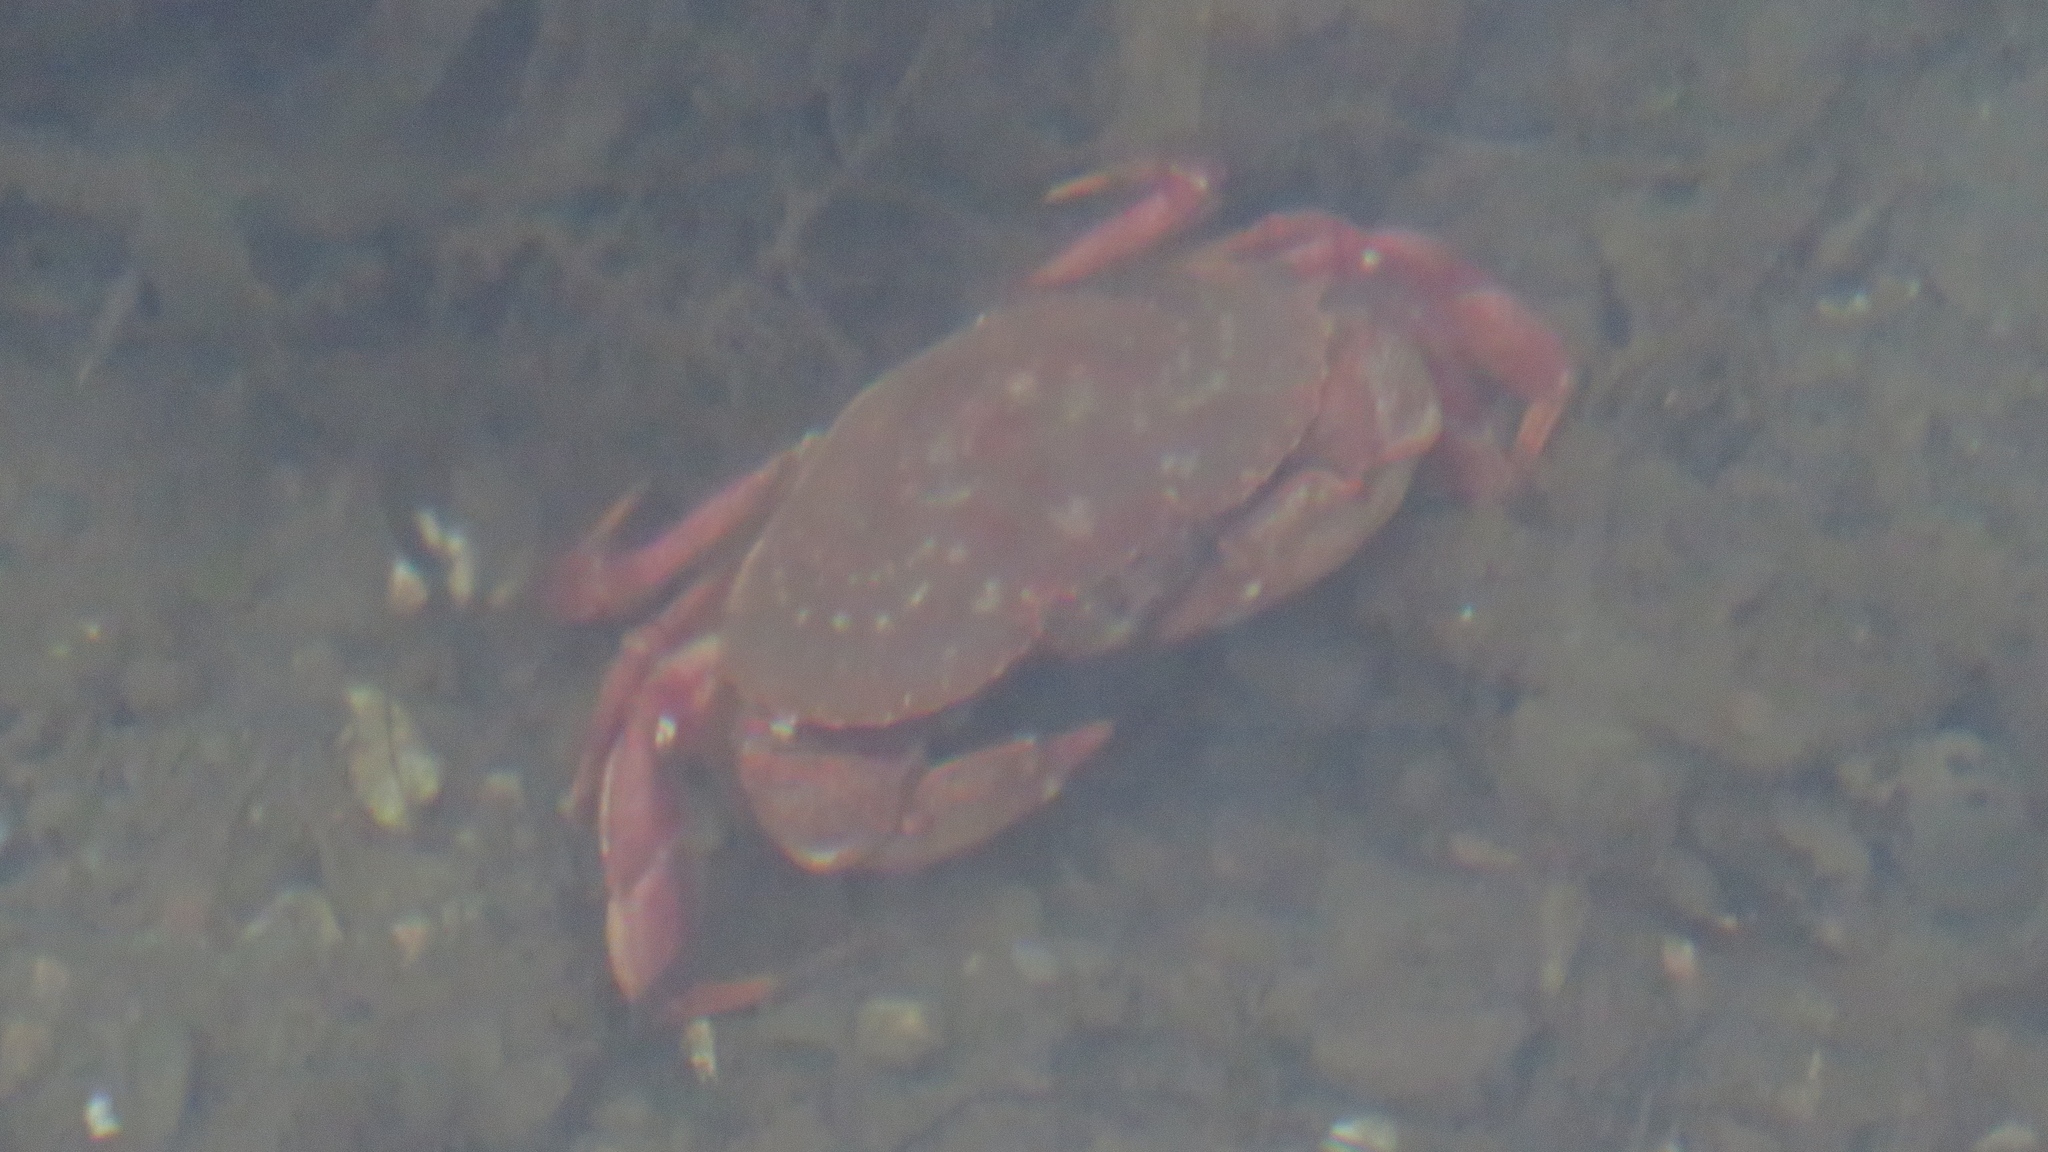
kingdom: Animalia
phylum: Arthropoda
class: Malacostraca
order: Decapoda
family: Cancridae
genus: Cancer
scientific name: Cancer irroratus
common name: Atlantic rock crab
